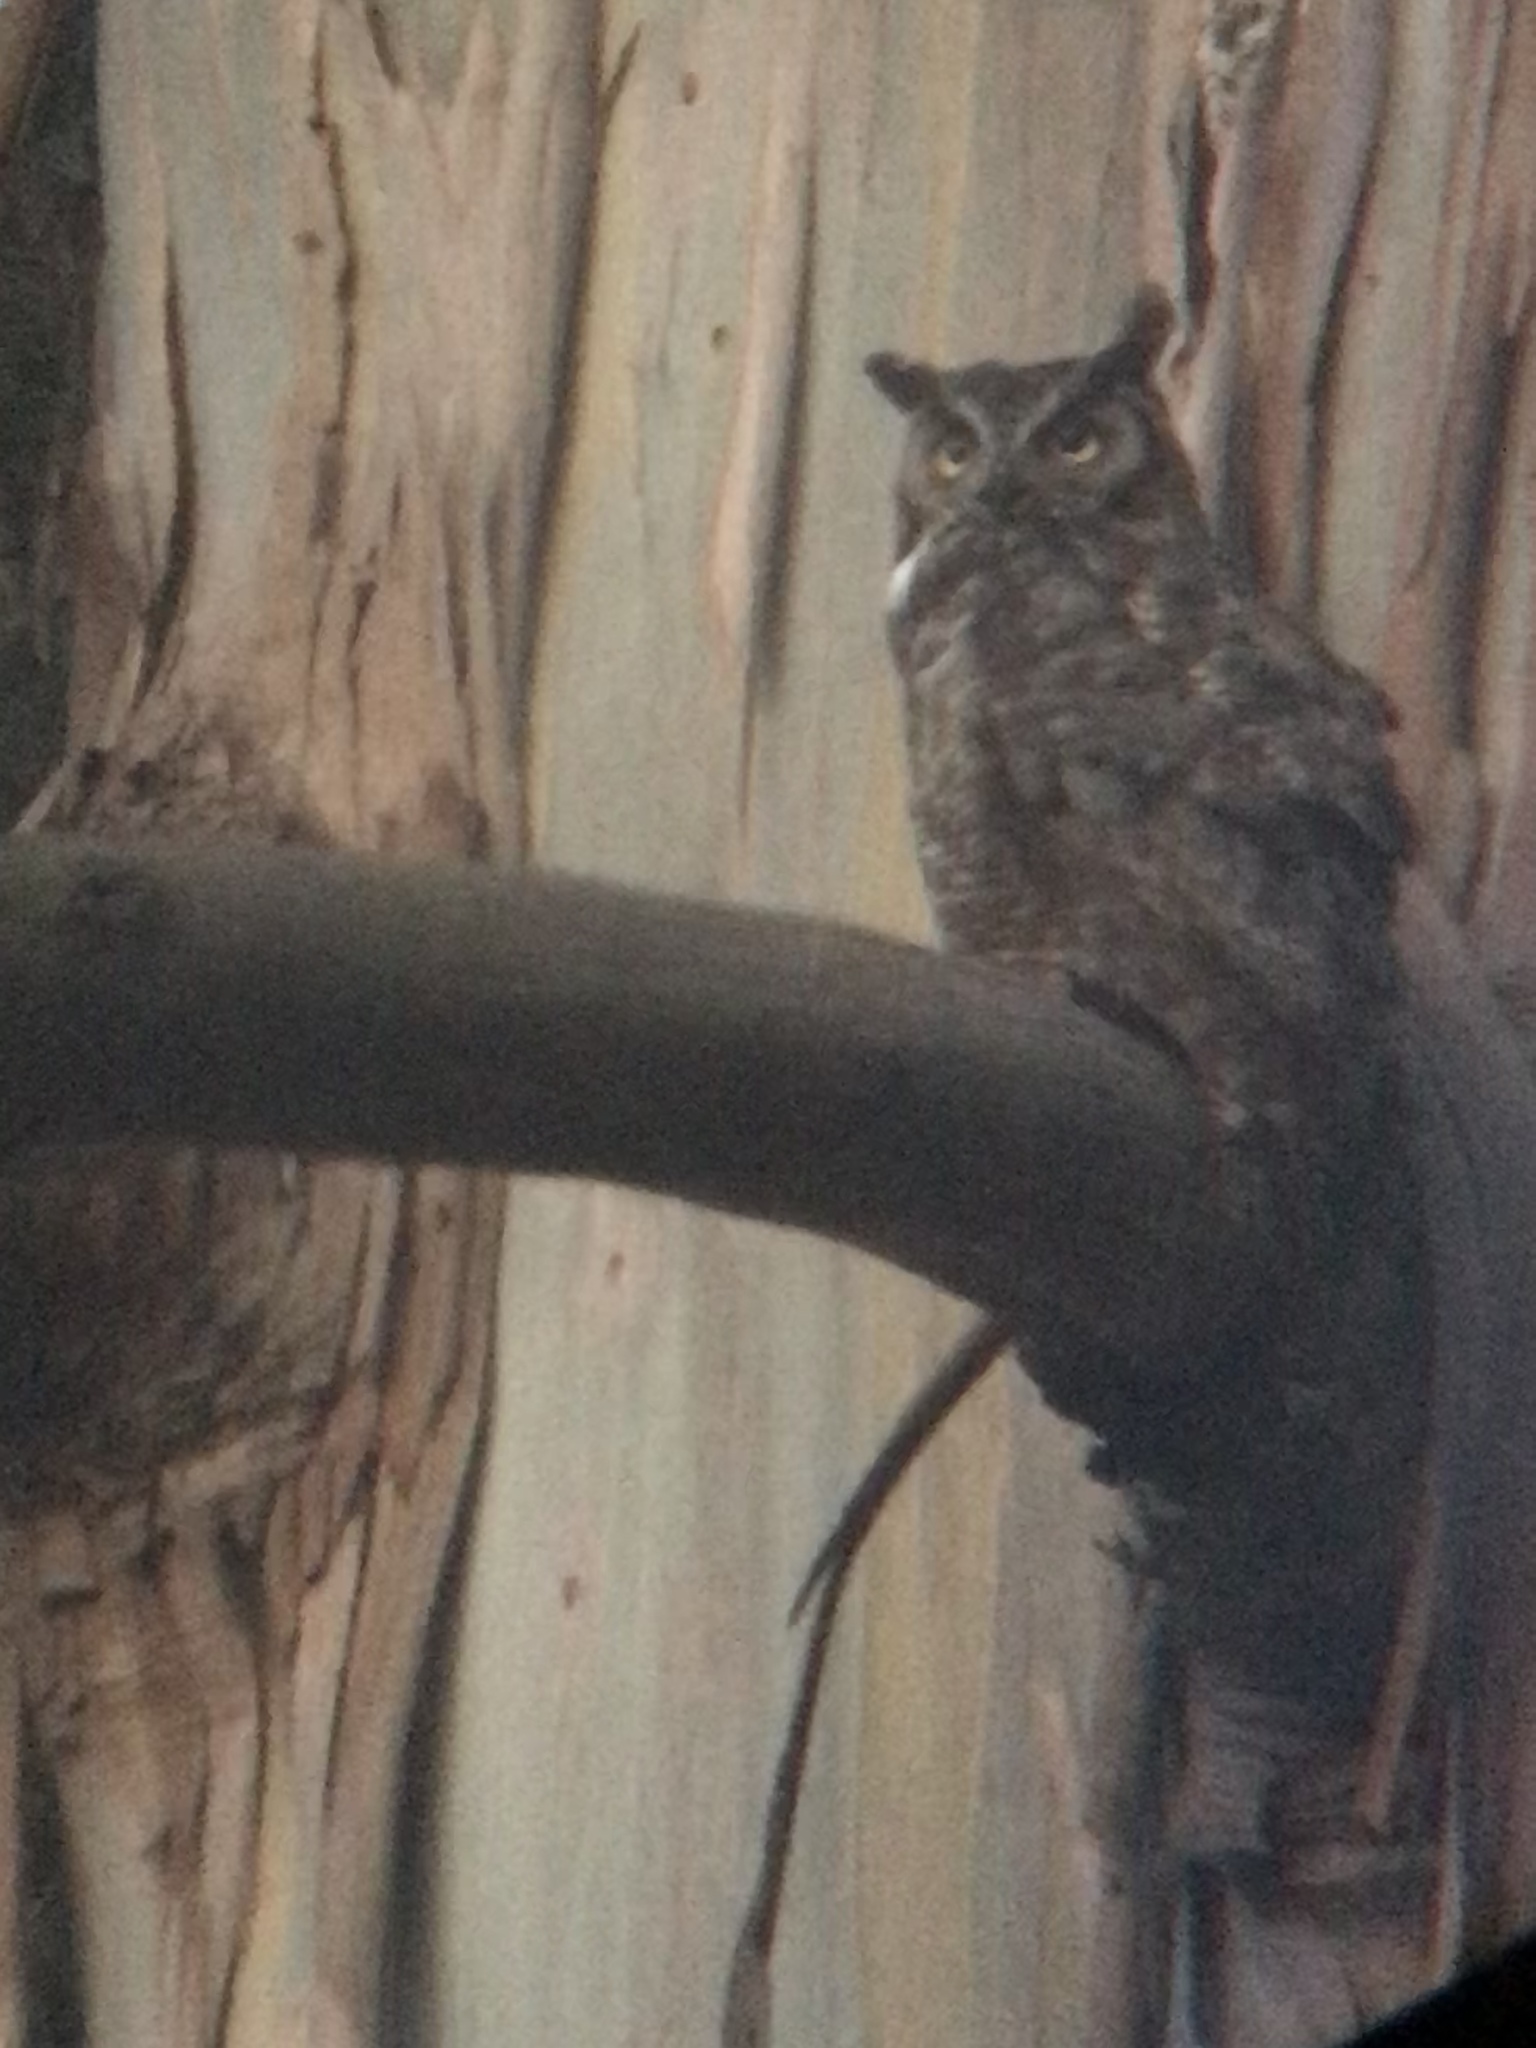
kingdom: Animalia
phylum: Chordata
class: Aves
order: Strigiformes
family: Strigidae
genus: Bubo
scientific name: Bubo virginianus
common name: Great horned owl
